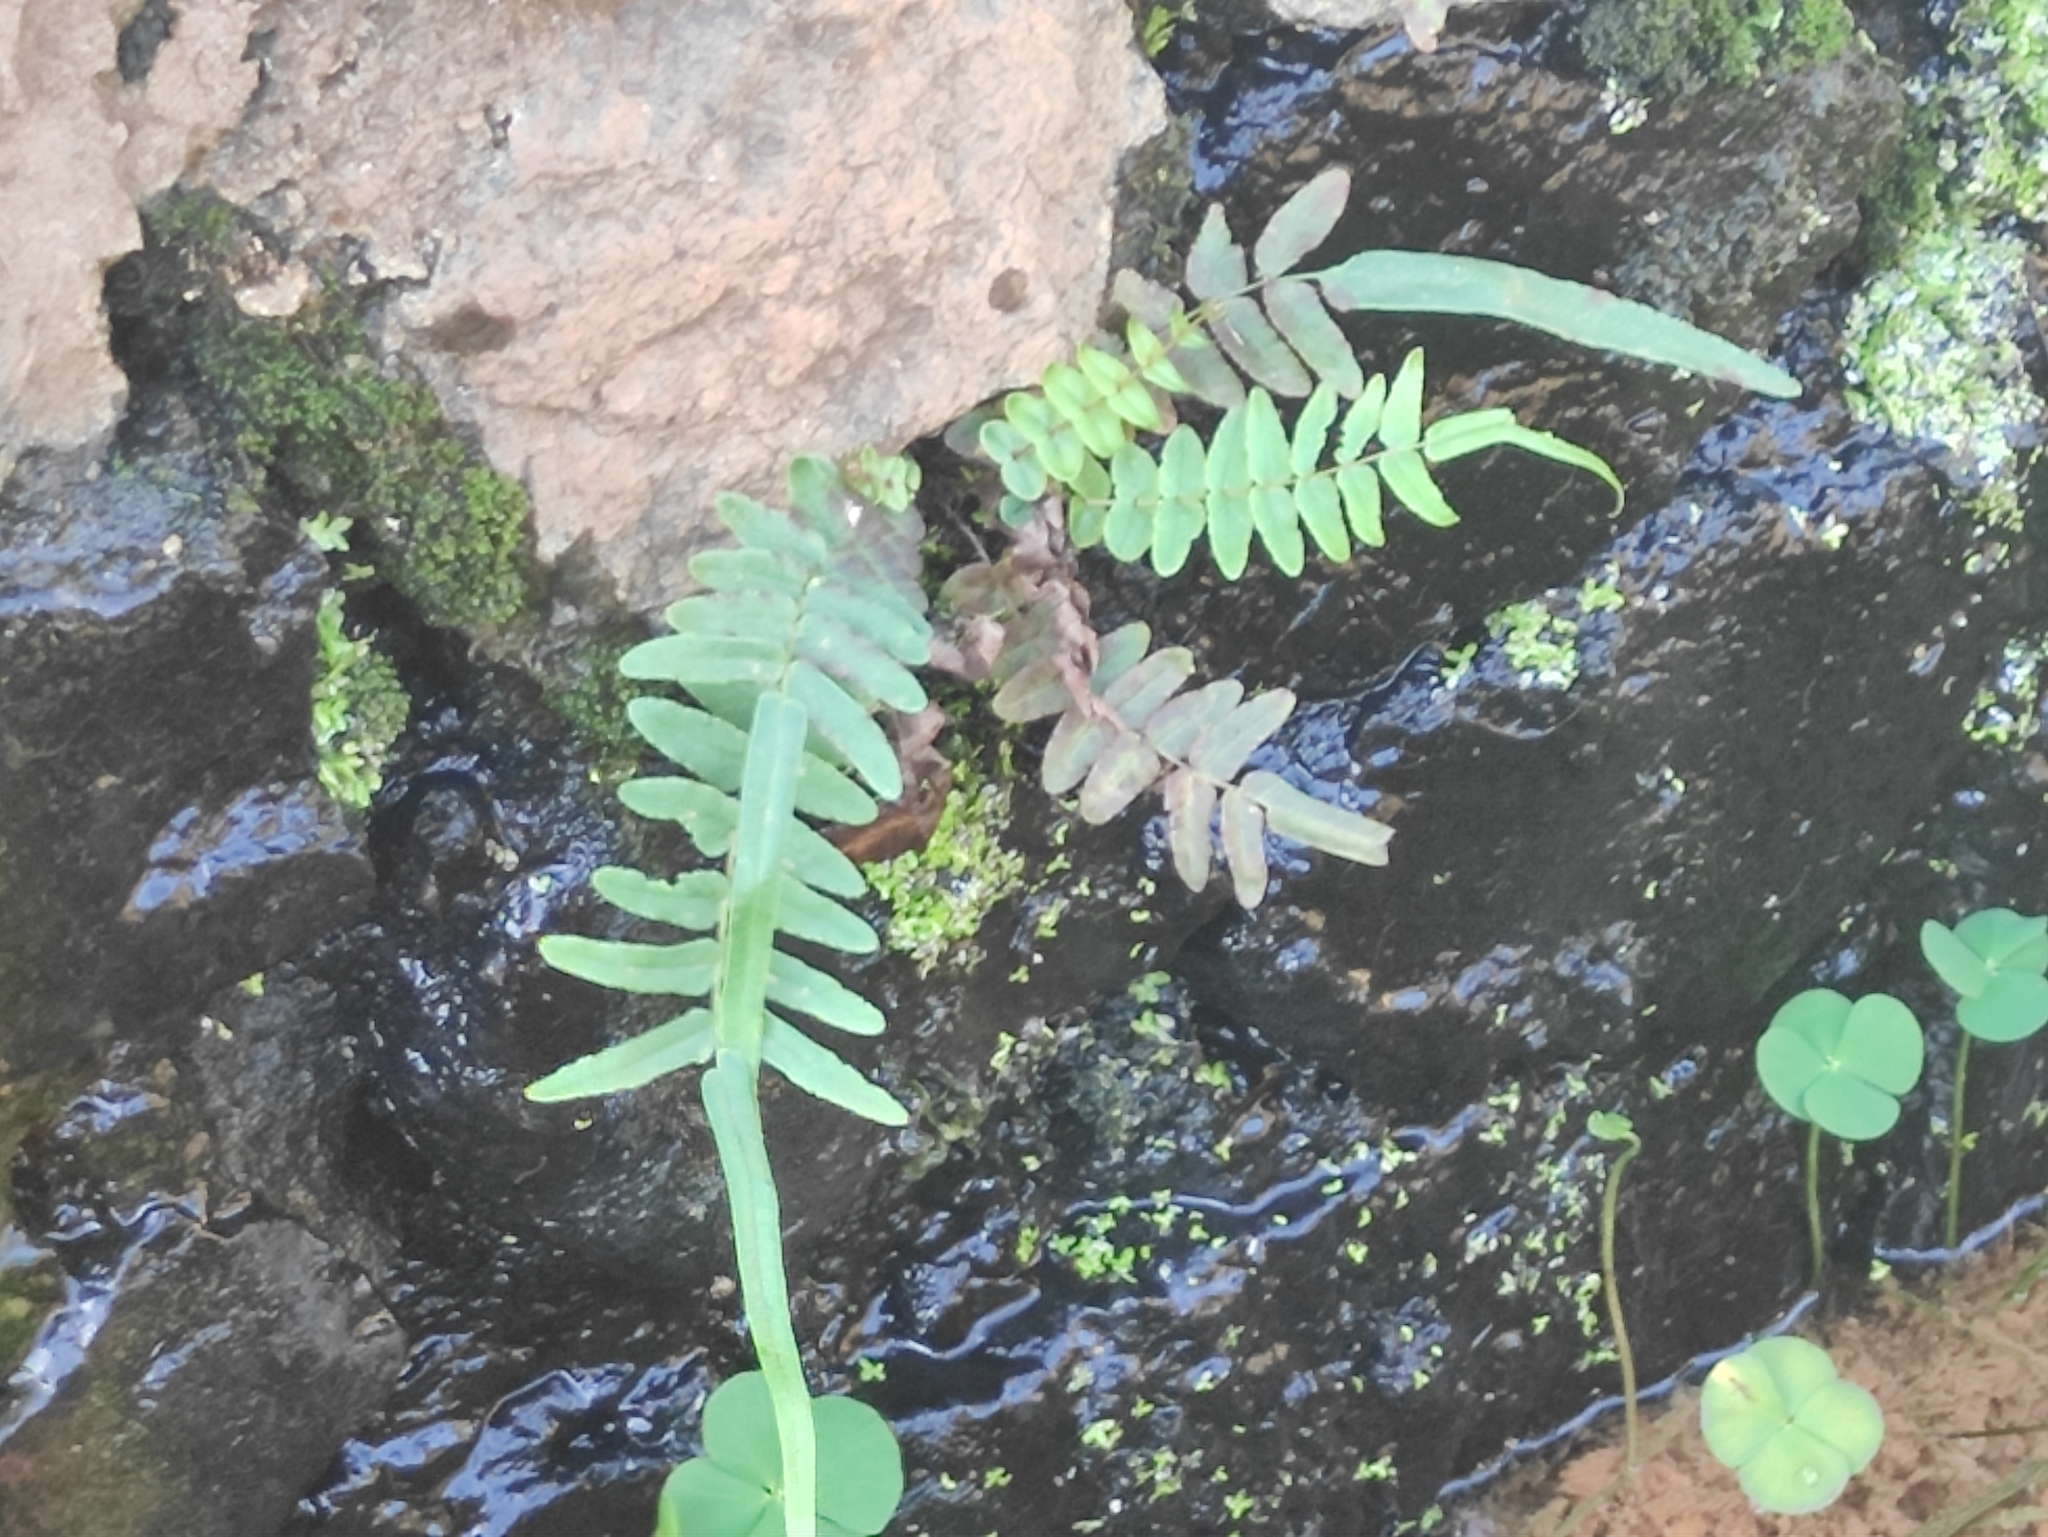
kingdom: Plantae
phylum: Tracheophyta
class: Polypodiopsida
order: Polypodiales
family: Pteridaceae
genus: Pteris
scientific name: Pteris vittata
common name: Ladder brake
